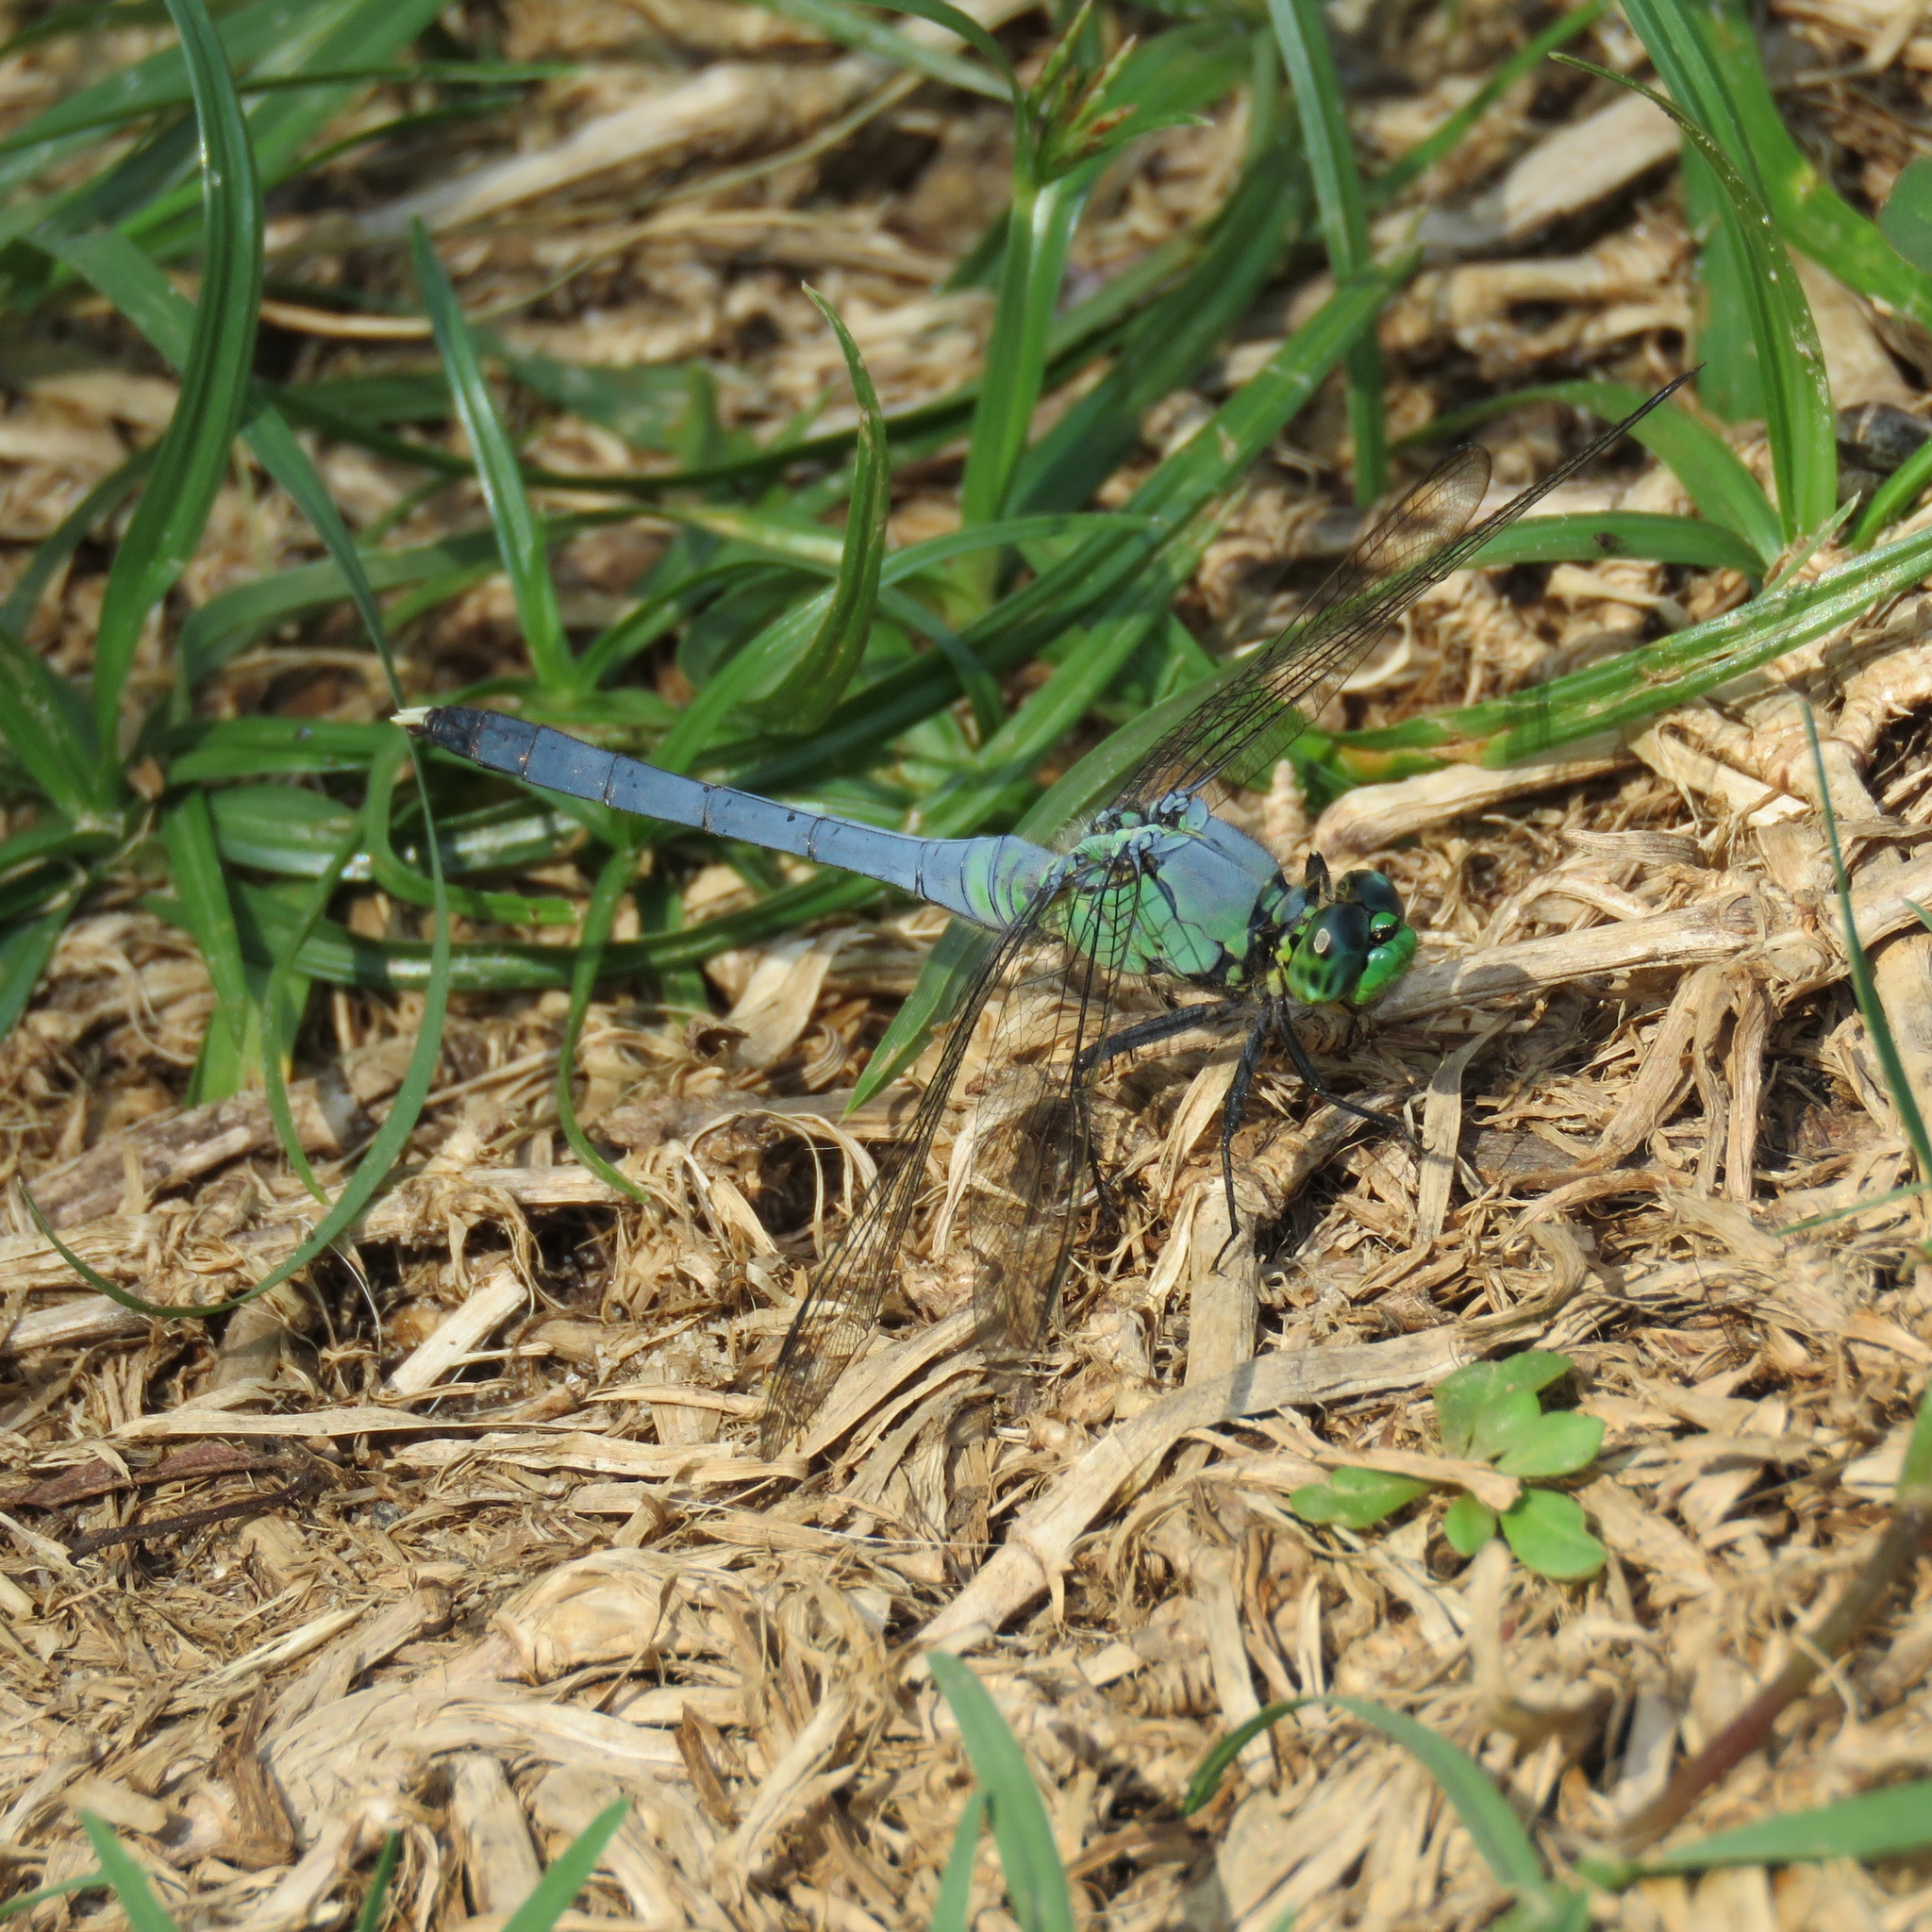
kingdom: Animalia
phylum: Arthropoda
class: Insecta
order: Odonata
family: Libellulidae
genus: Erythemis
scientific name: Erythemis simplicicollis
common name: Eastern pondhawk
